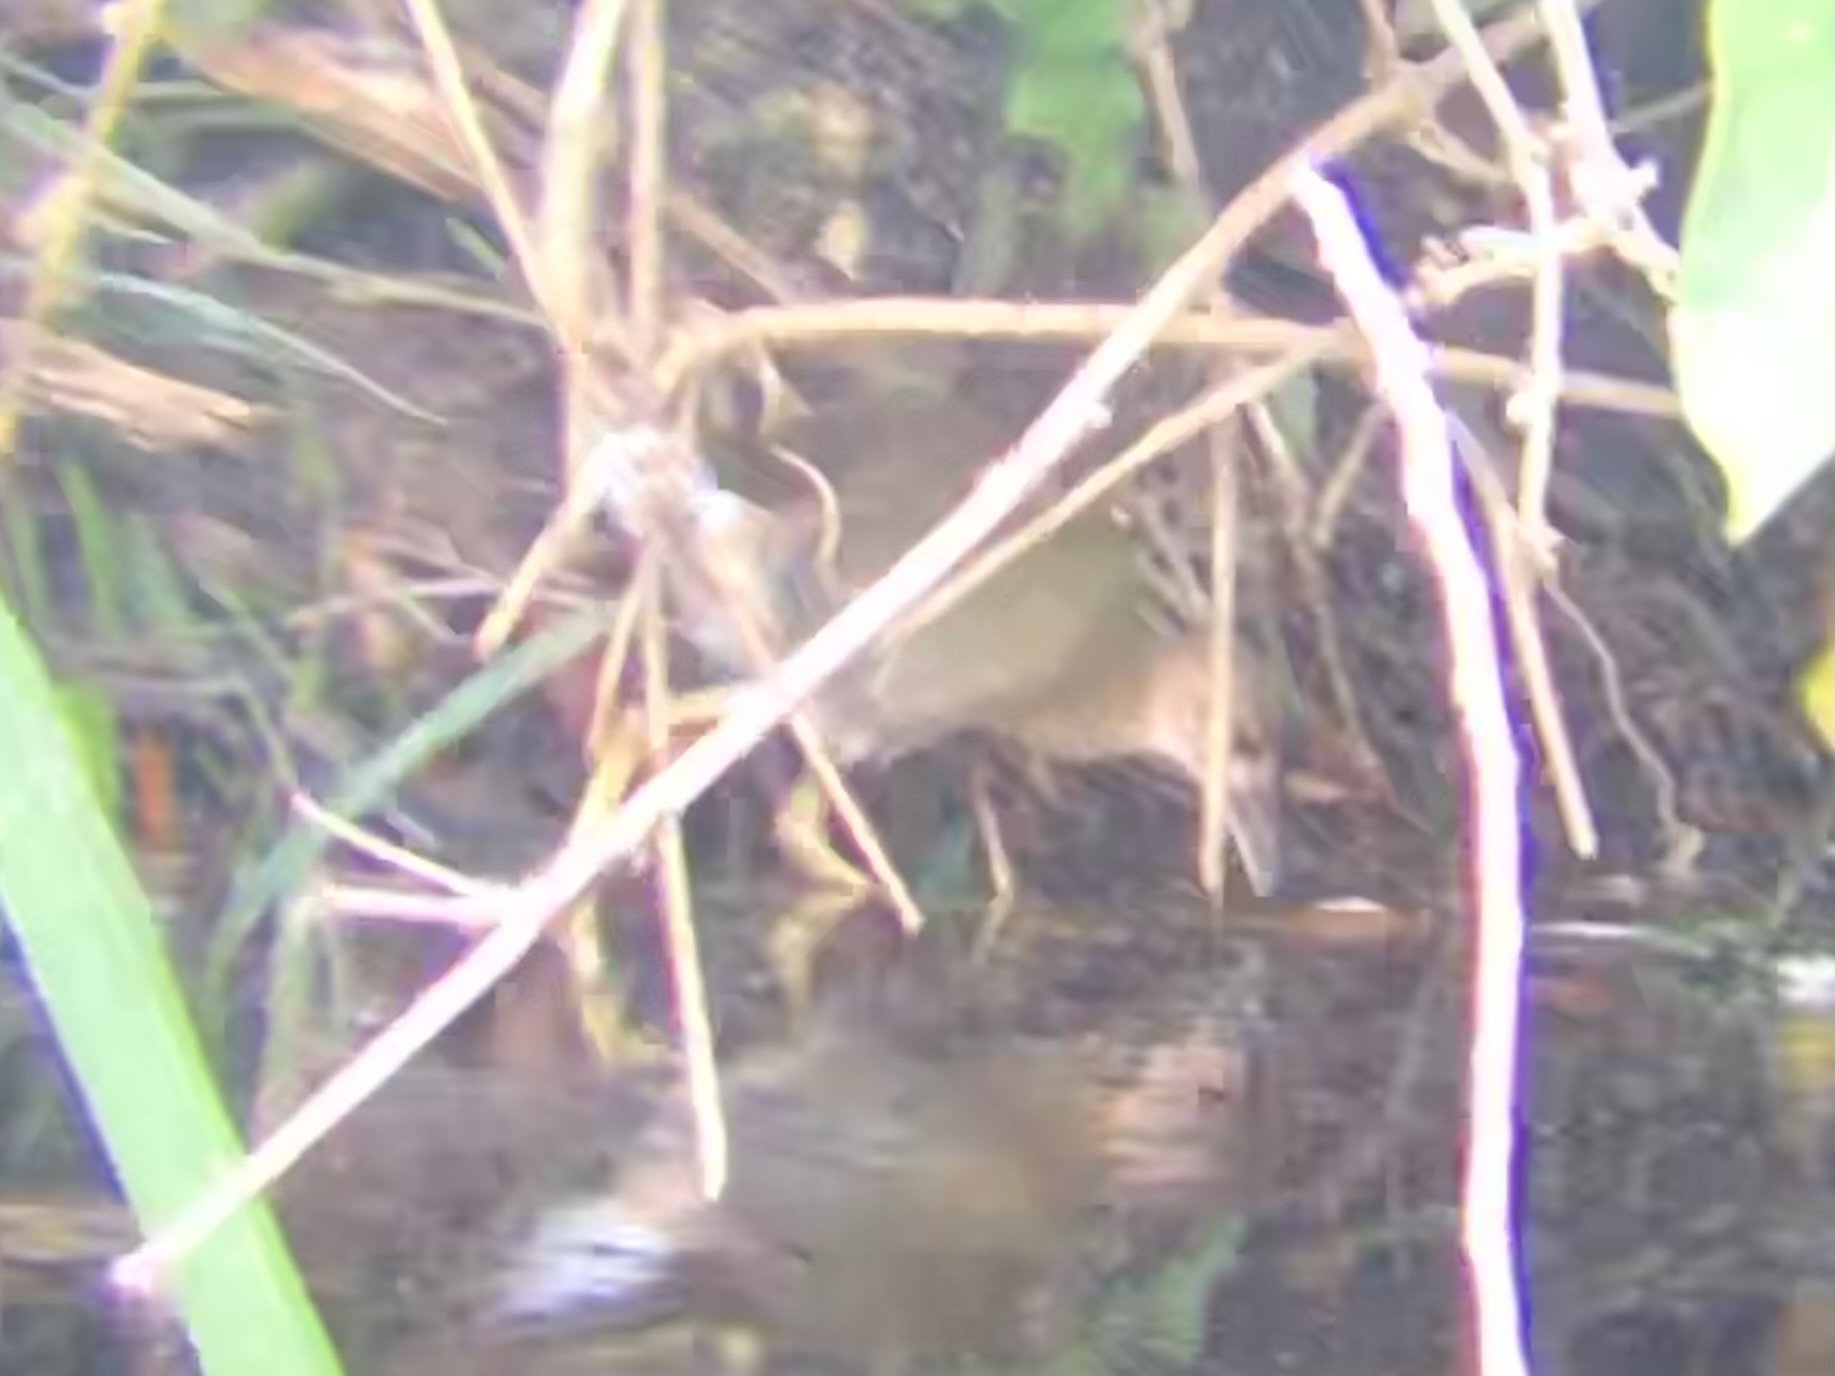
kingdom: Animalia
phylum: Chordata
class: Aves
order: Gruiformes
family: Rallidae
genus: Porphyrio
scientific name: Porphyrio martinica
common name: Purple gallinule
